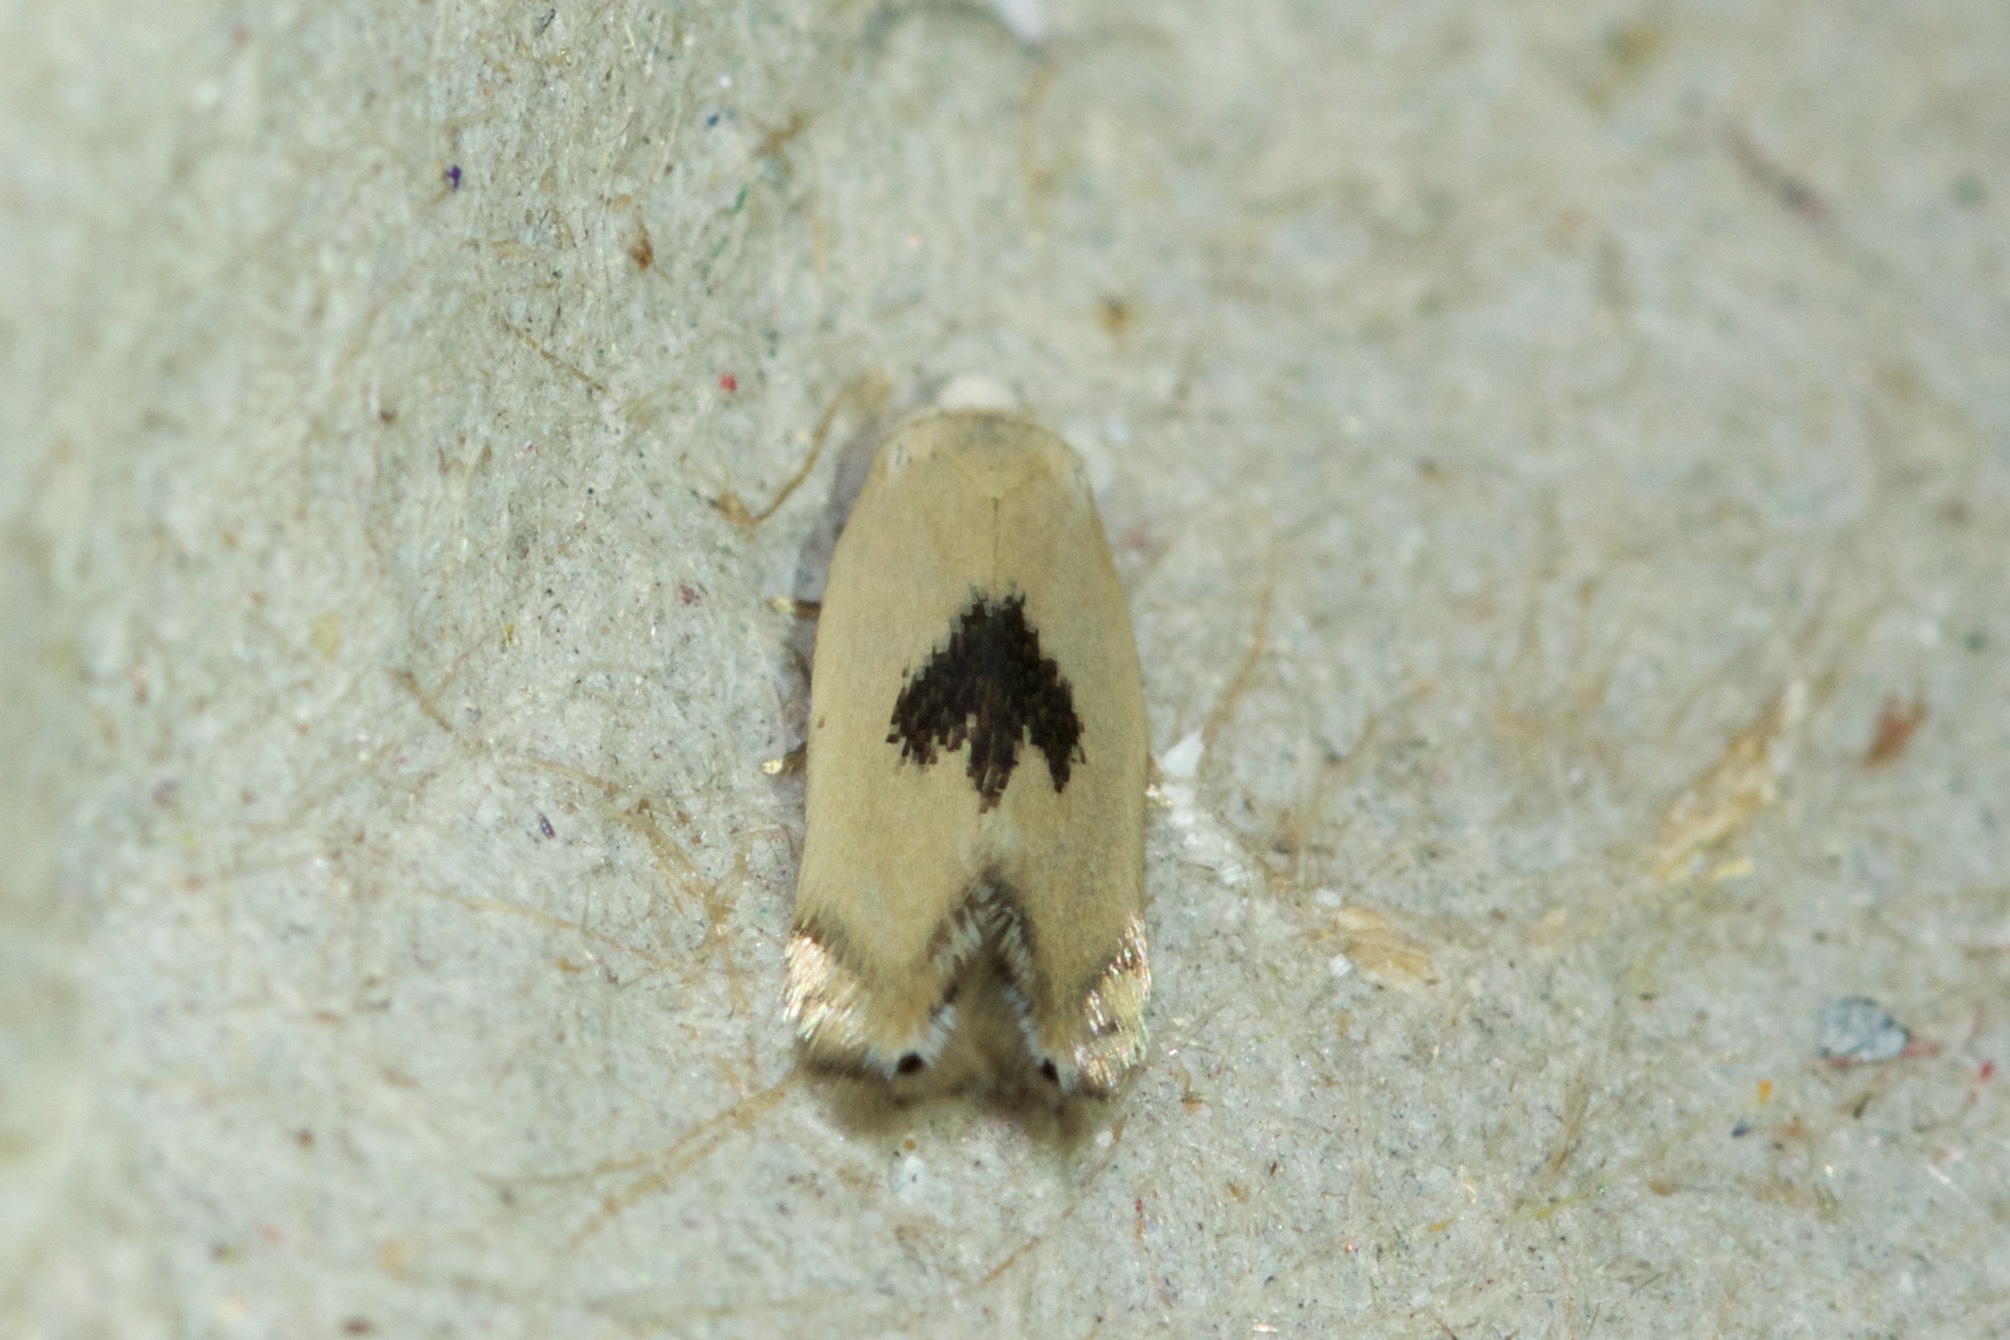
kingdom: Animalia
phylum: Arthropoda
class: Insecta
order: Lepidoptera
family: Opostegidae
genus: Pseudopostega
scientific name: Pseudopostega cretea
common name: White eye-cap moth
